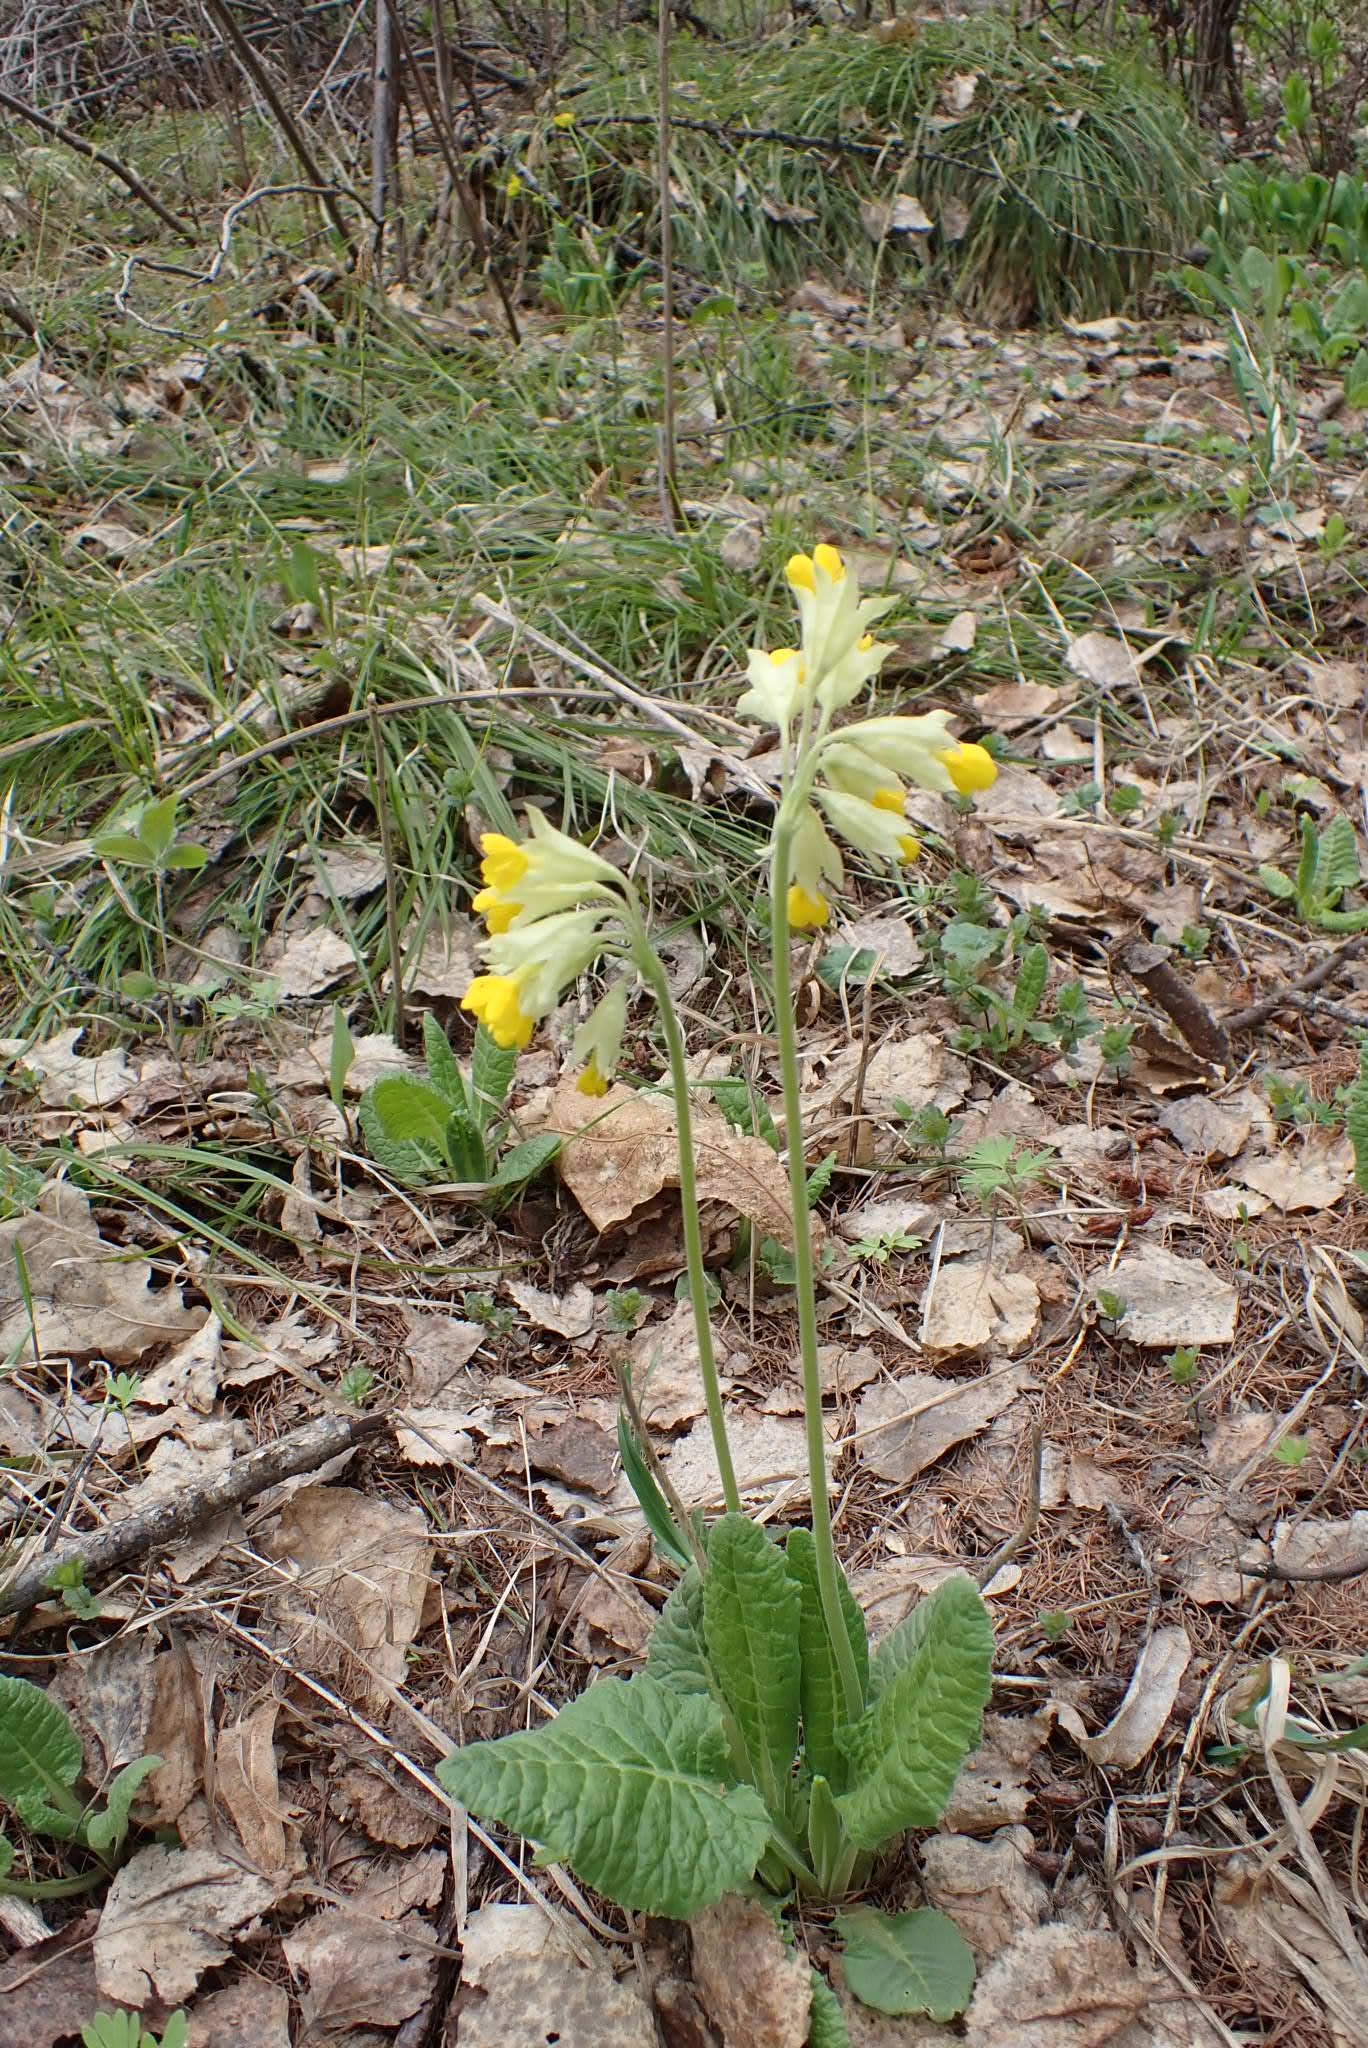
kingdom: Plantae
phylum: Tracheophyta
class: Magnoliopsida
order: Ericales
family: Primulaceae
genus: Primula
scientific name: Primula veris
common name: Cowslip
